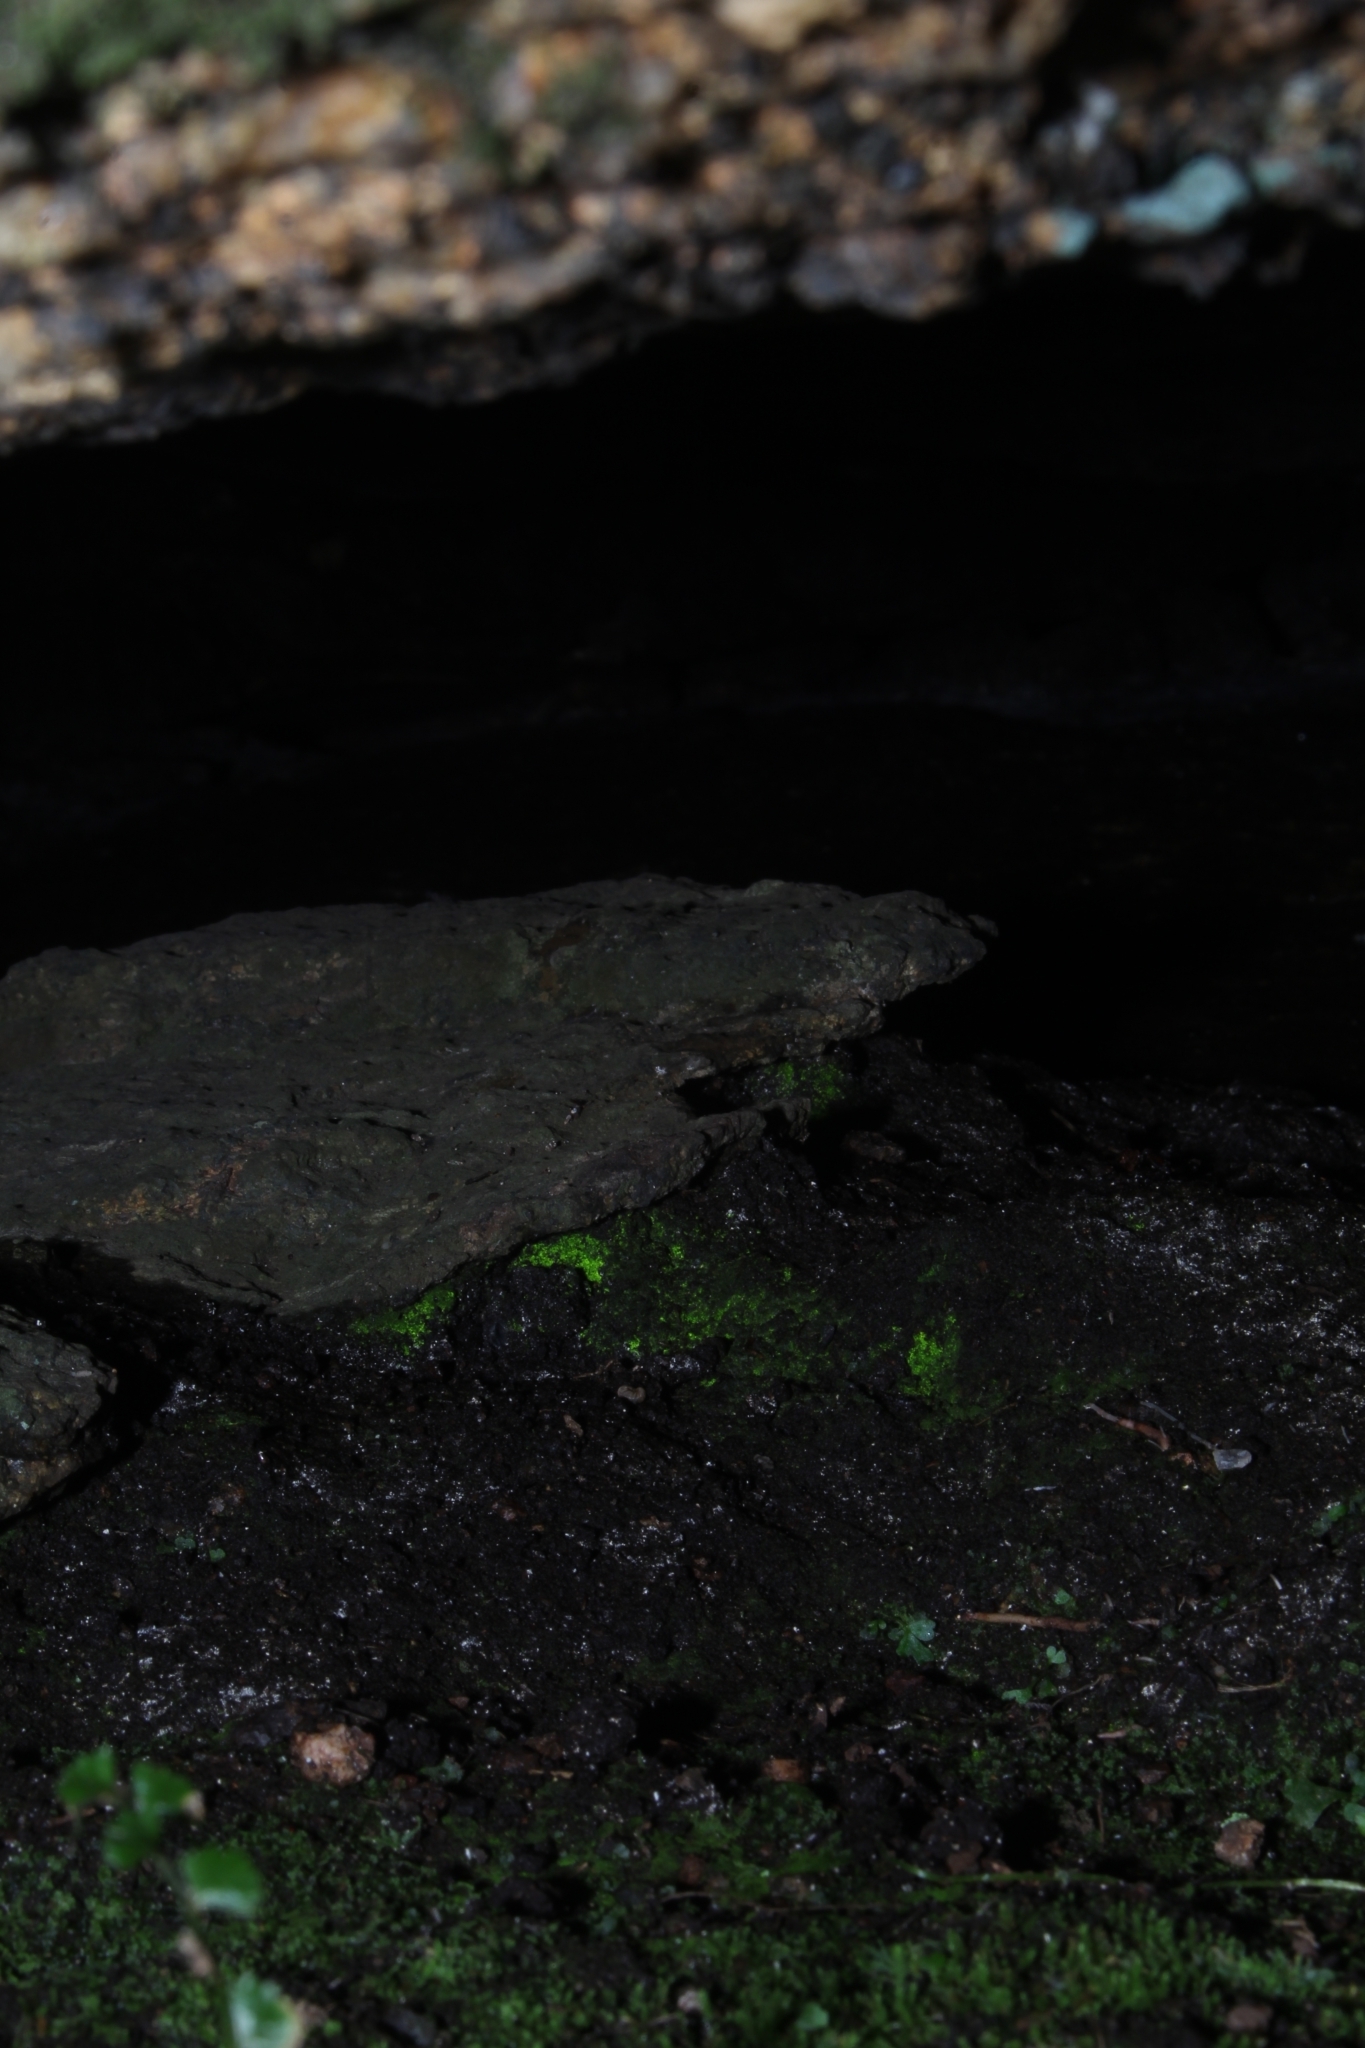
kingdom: Plantae
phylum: Bryophyta
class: Bryopsida
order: Pottiales
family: Mitteniaceae
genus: Mittenia
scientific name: Mittenia plumula
